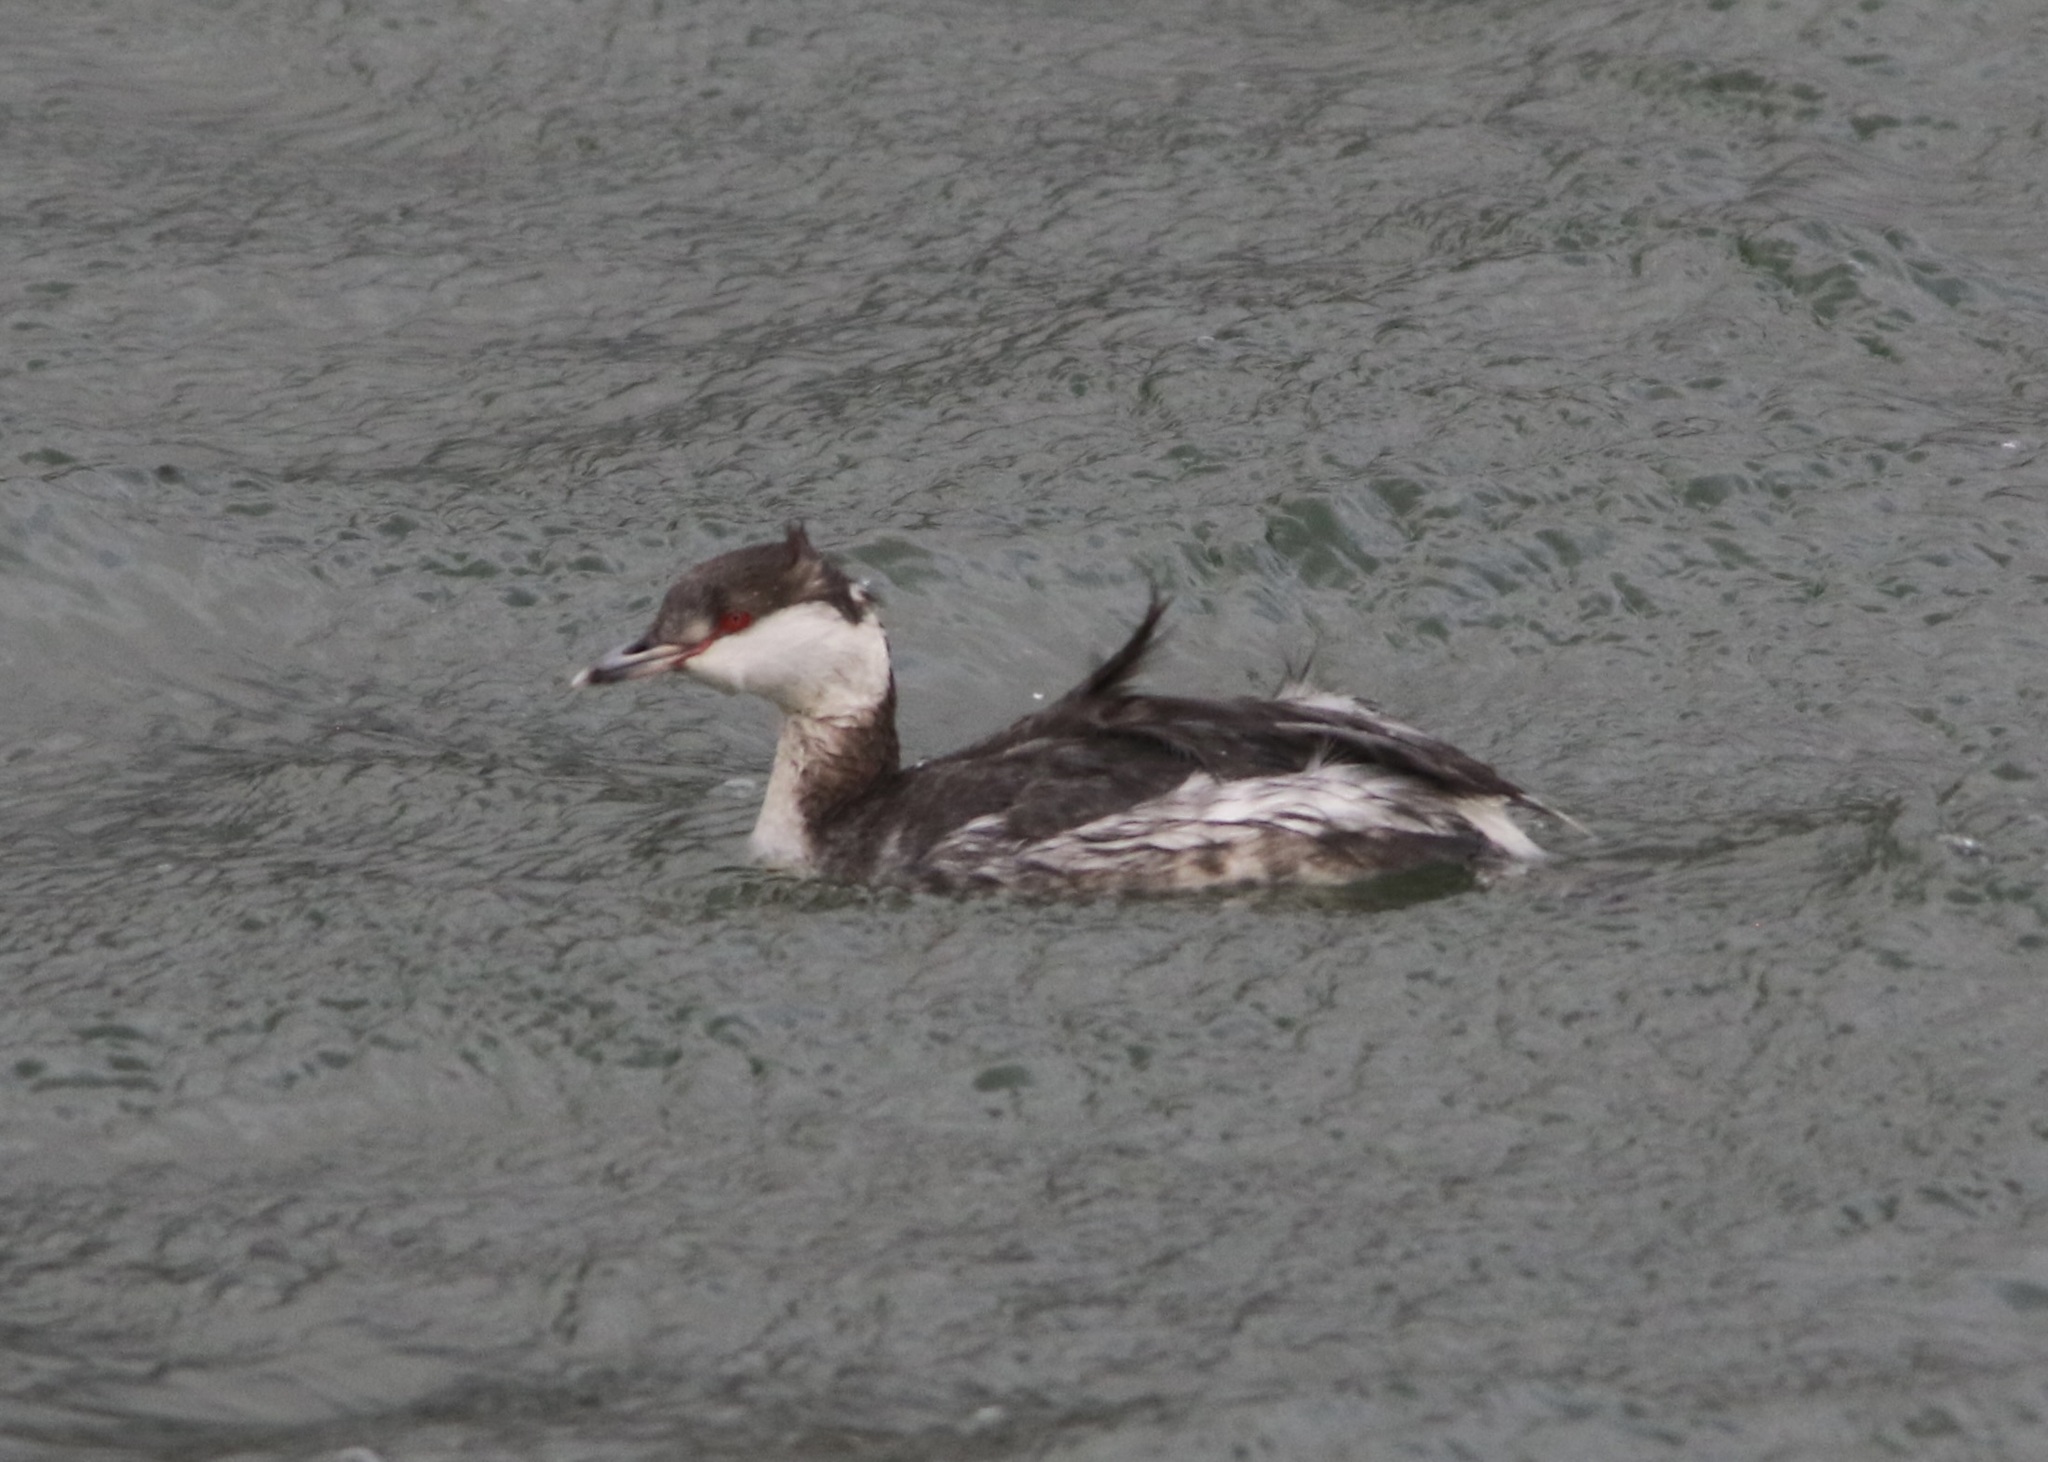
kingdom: Animalia
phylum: Chordata
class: Aves
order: Podicipediformes
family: Podicipedidae
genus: Podiceps
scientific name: Podiceps auritus
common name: Horned grebe
